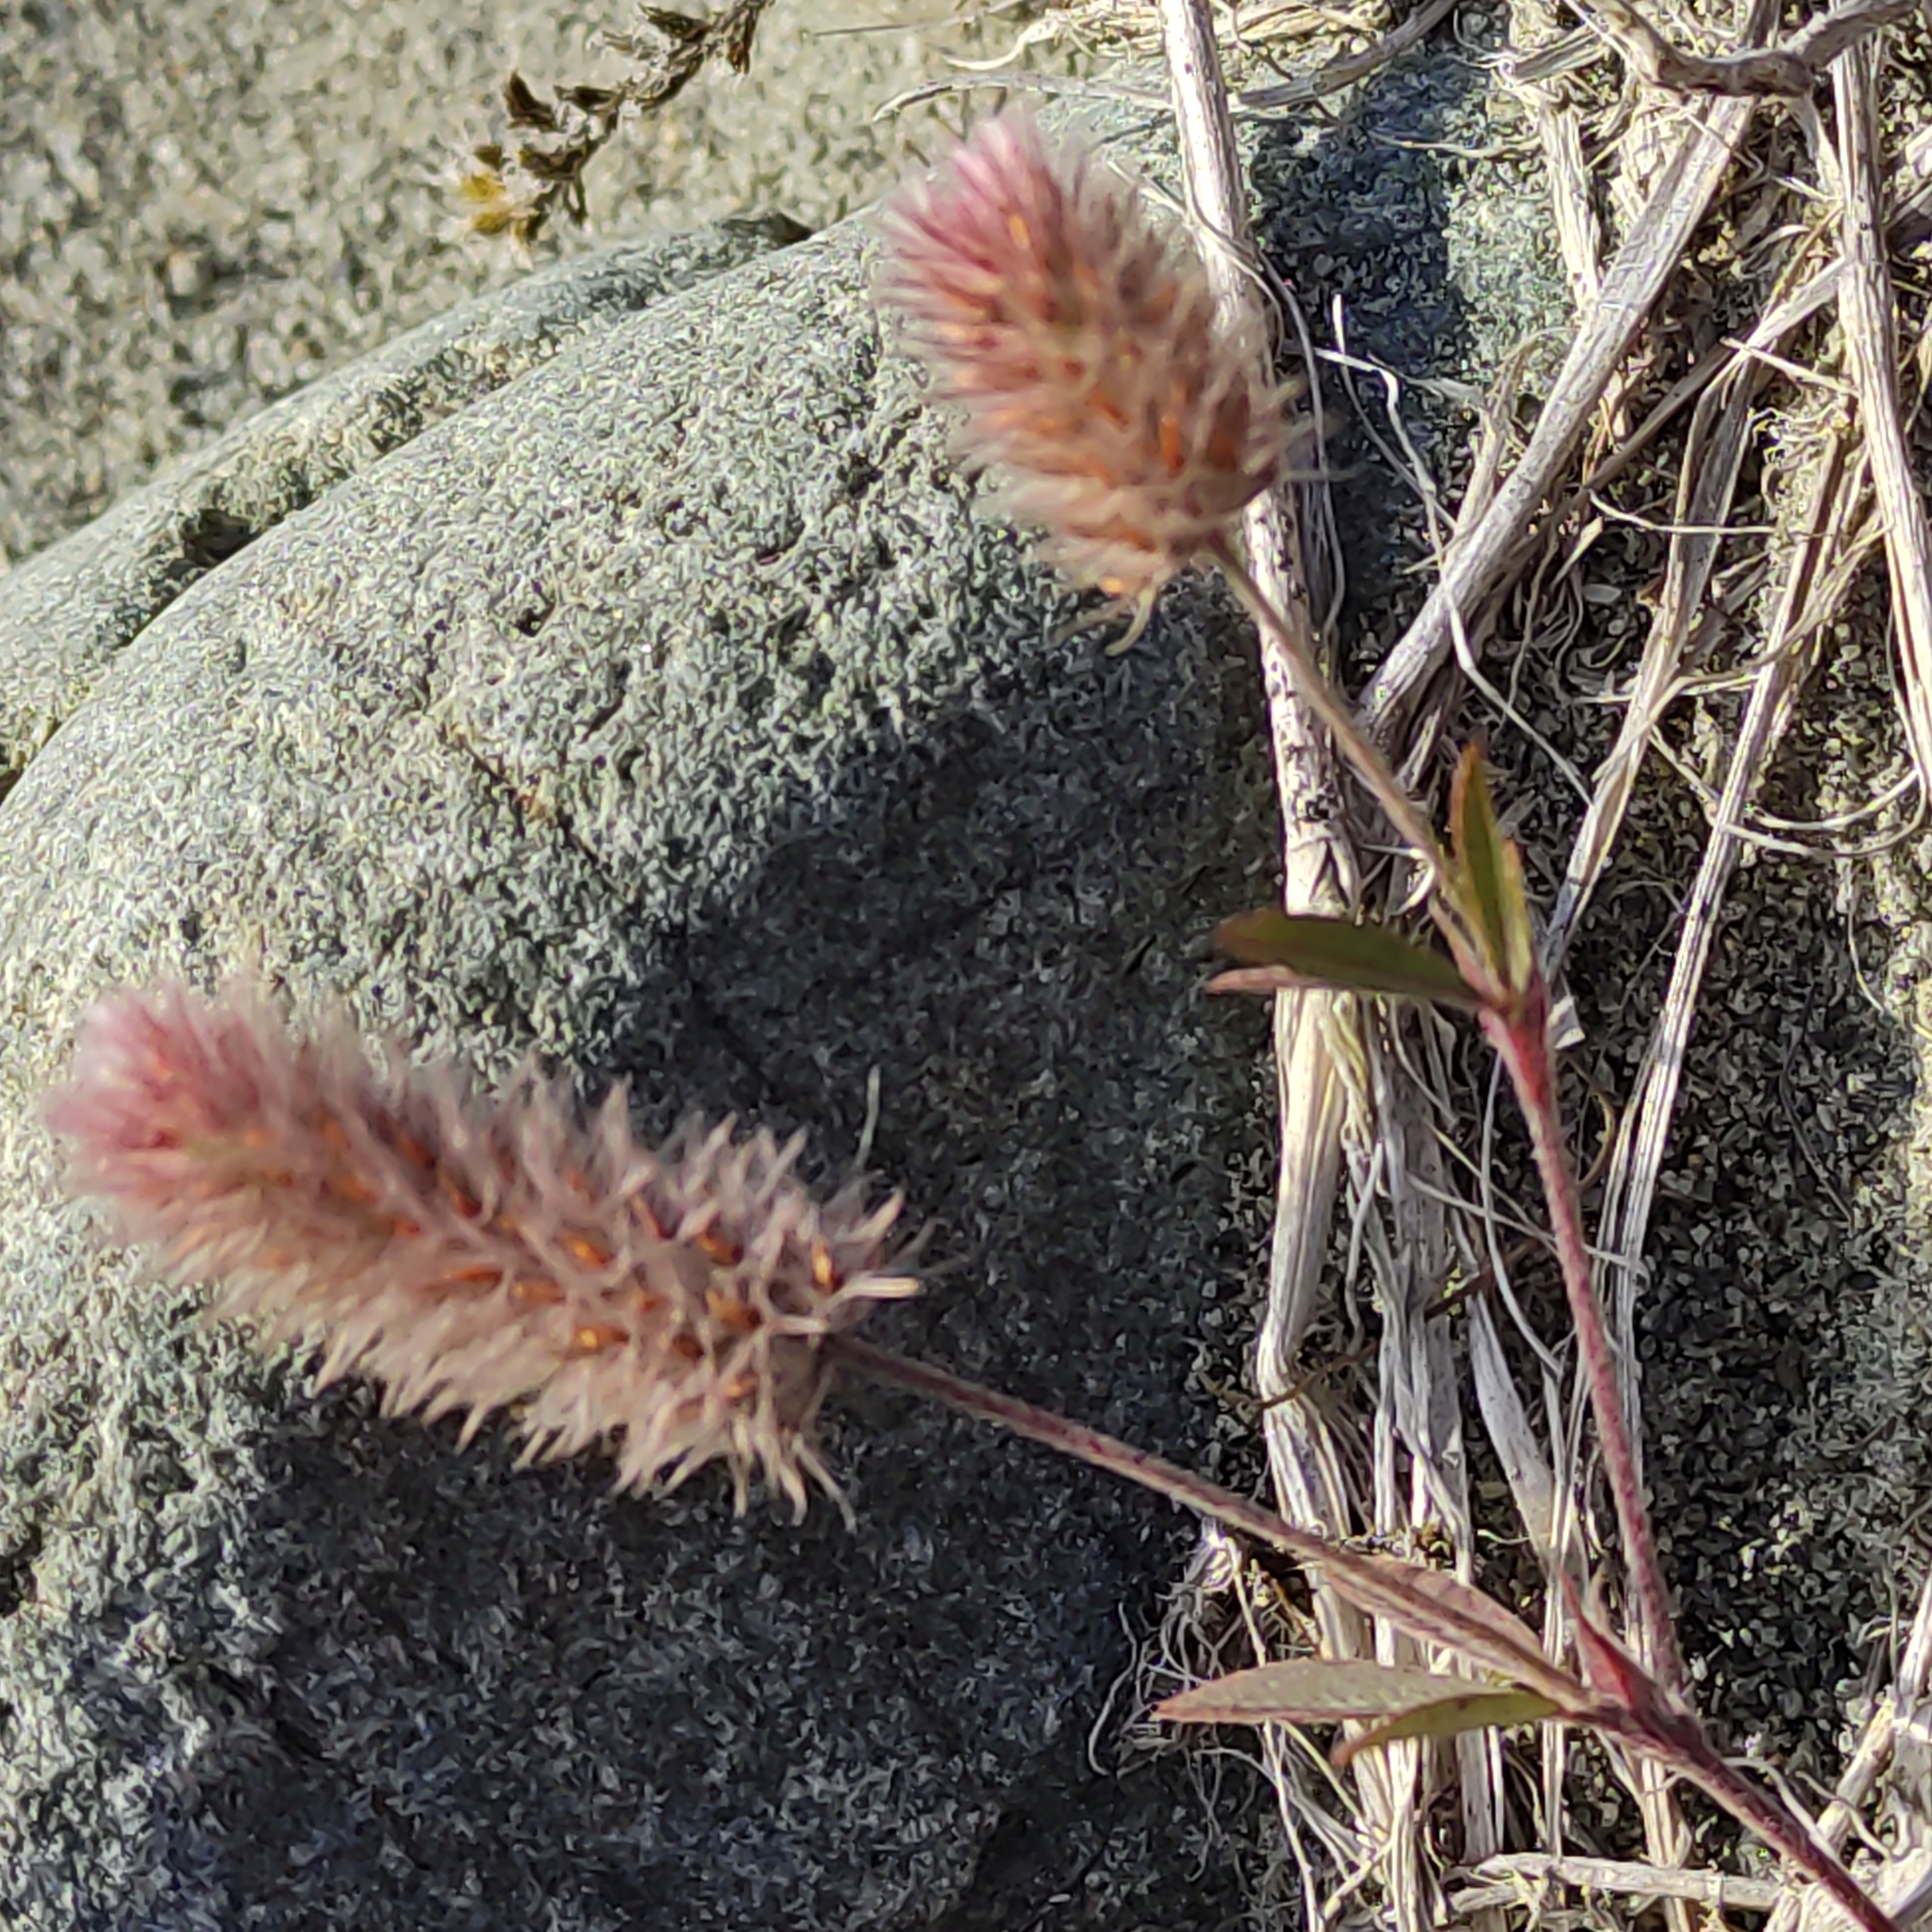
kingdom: Plantae
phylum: Tracheophyta
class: Magnoliopsida
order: Fabales
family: Fabaceae
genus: Trifolium
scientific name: Trifolium arvense
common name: Hare's-foot clover
